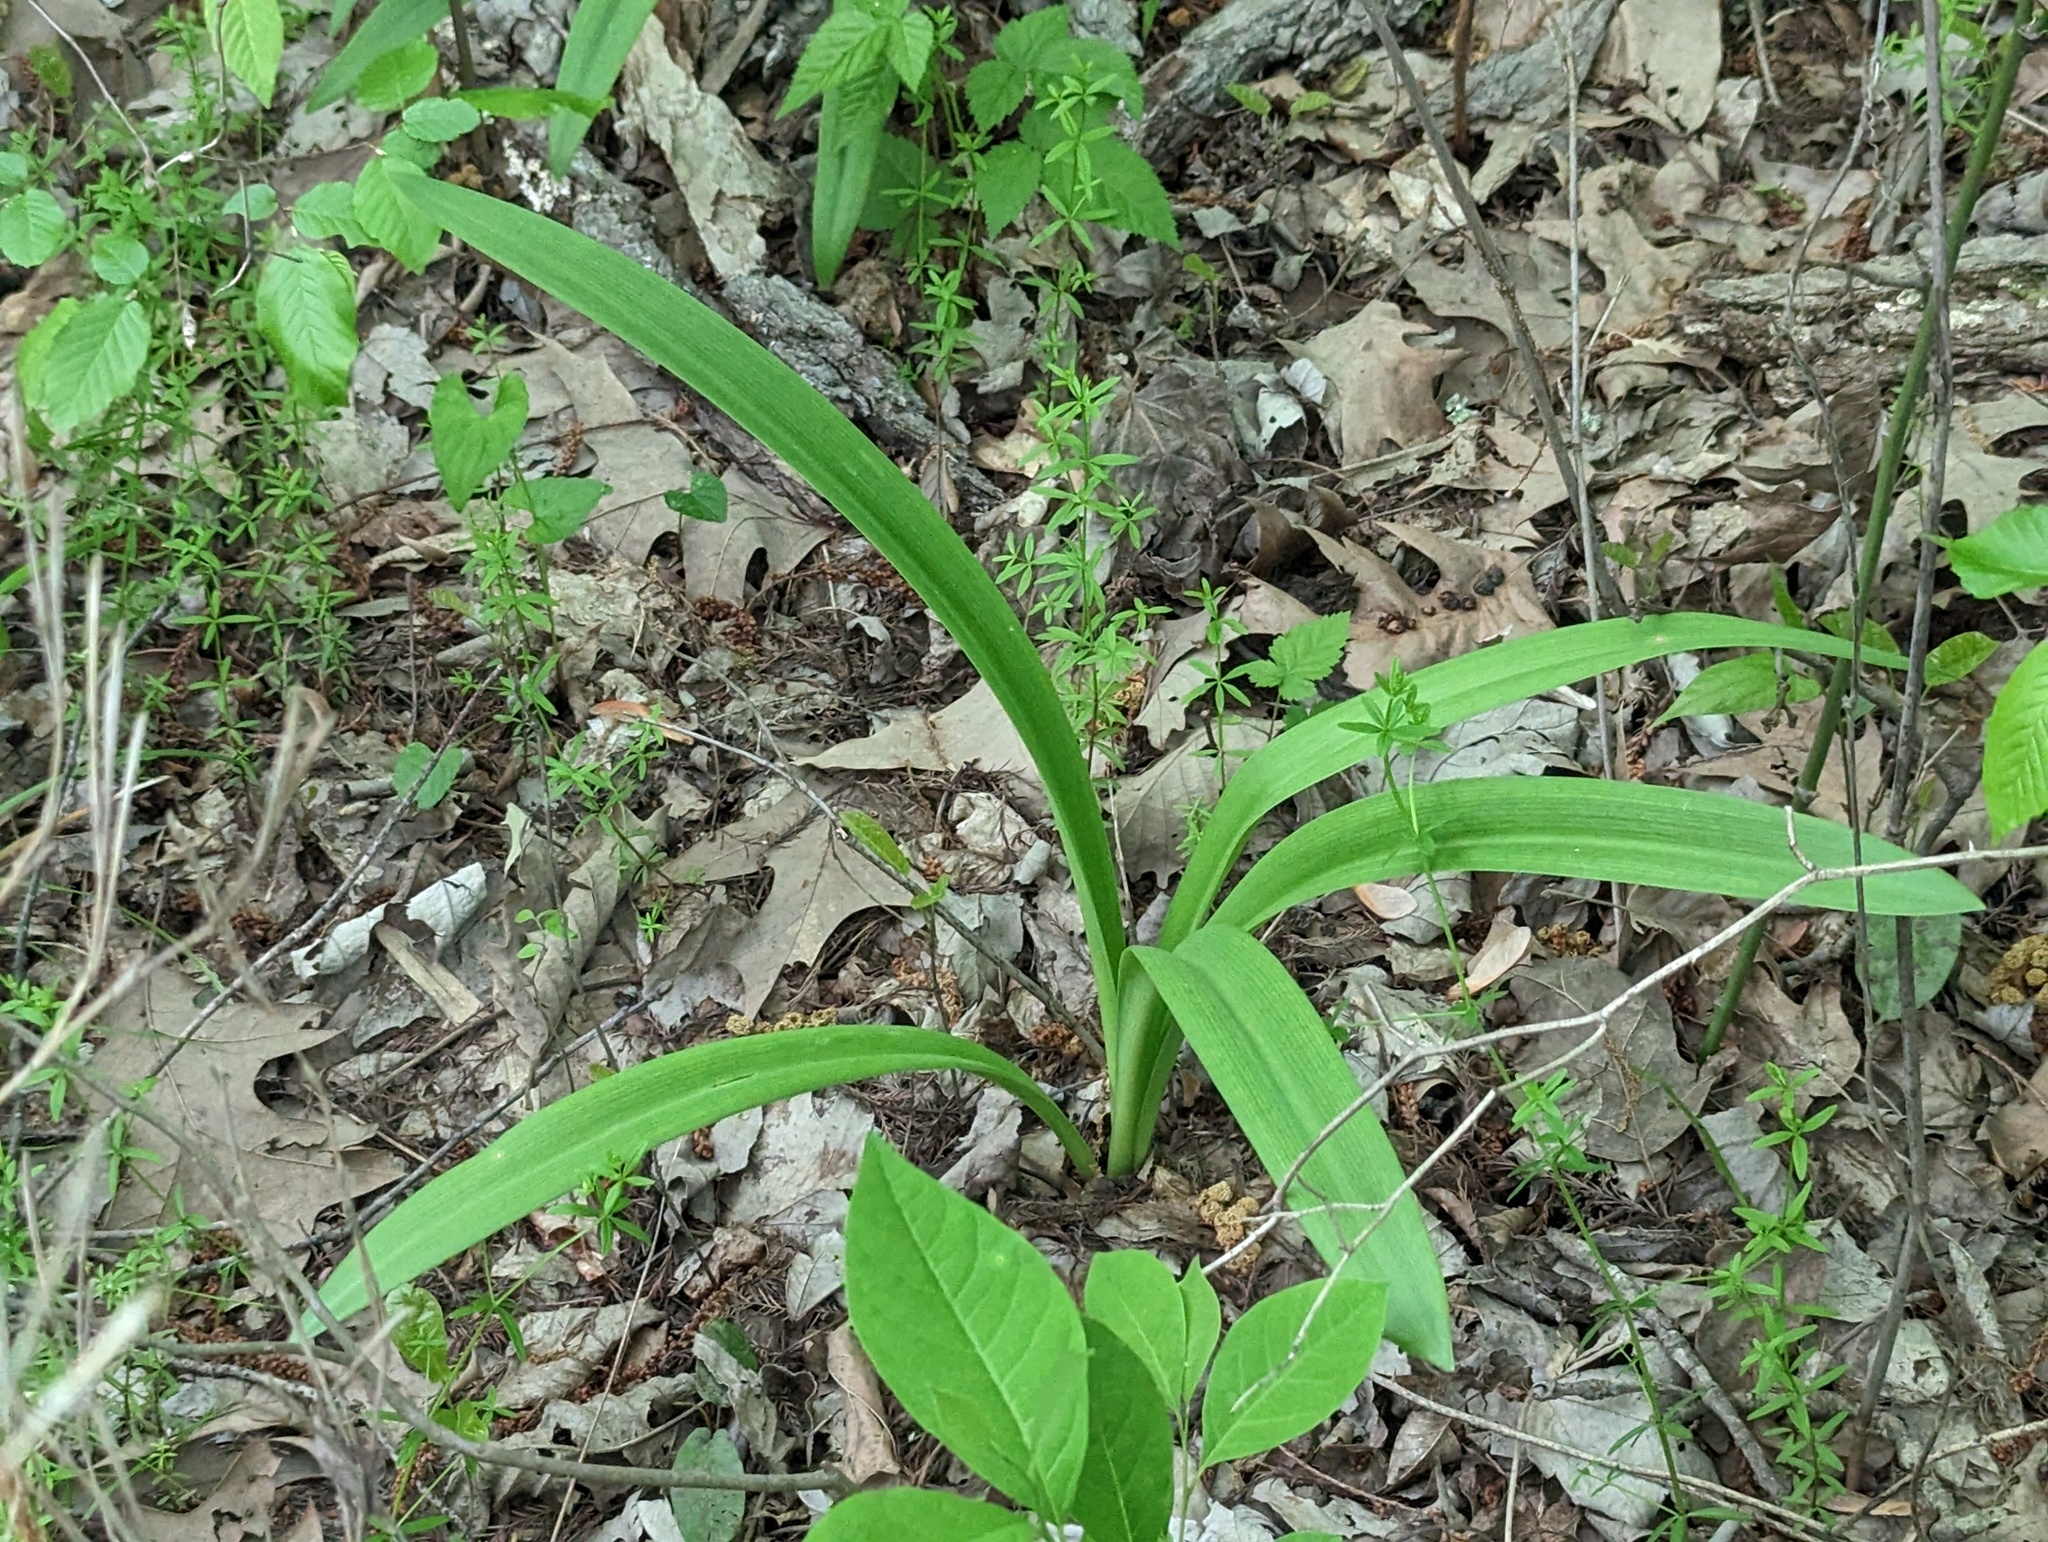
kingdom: Plantae
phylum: Tracheophyta
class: Liliopsida
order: Asparagales
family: Amaryllidaceae
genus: Hymenocallis
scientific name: Hymenocallis occidentalis
